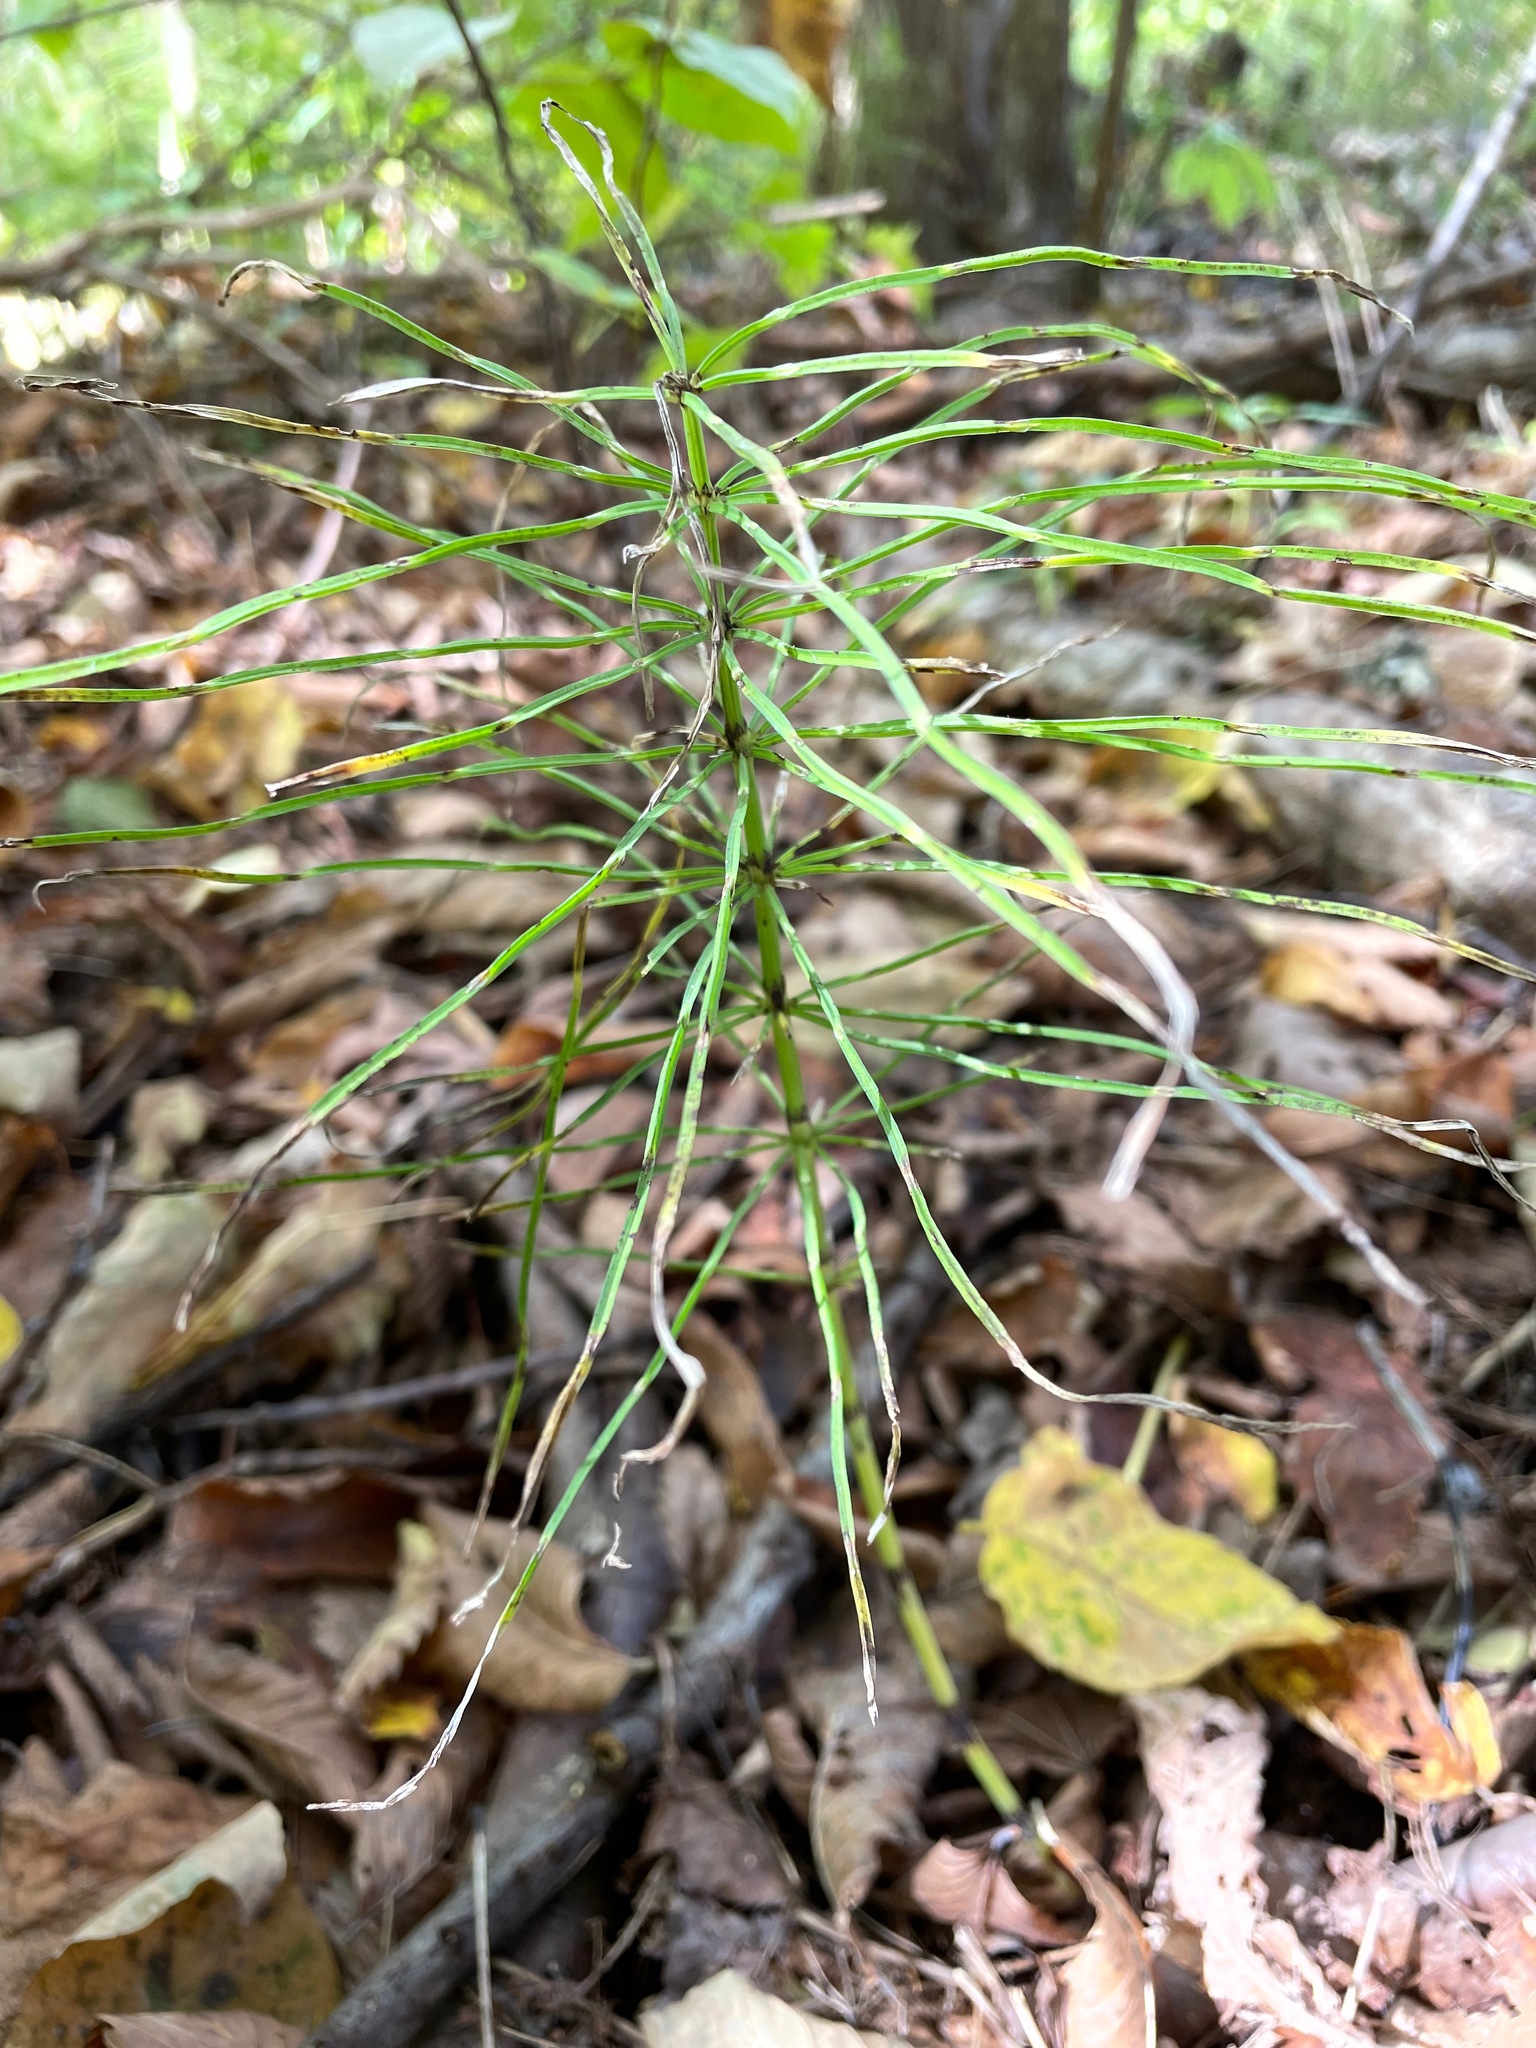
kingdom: Plantae
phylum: Tracheophyta
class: Polypodiopsida
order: Equisetales
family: Equisetaceae
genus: Equisetum
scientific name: Equisetum arvense
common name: Field horsetail
